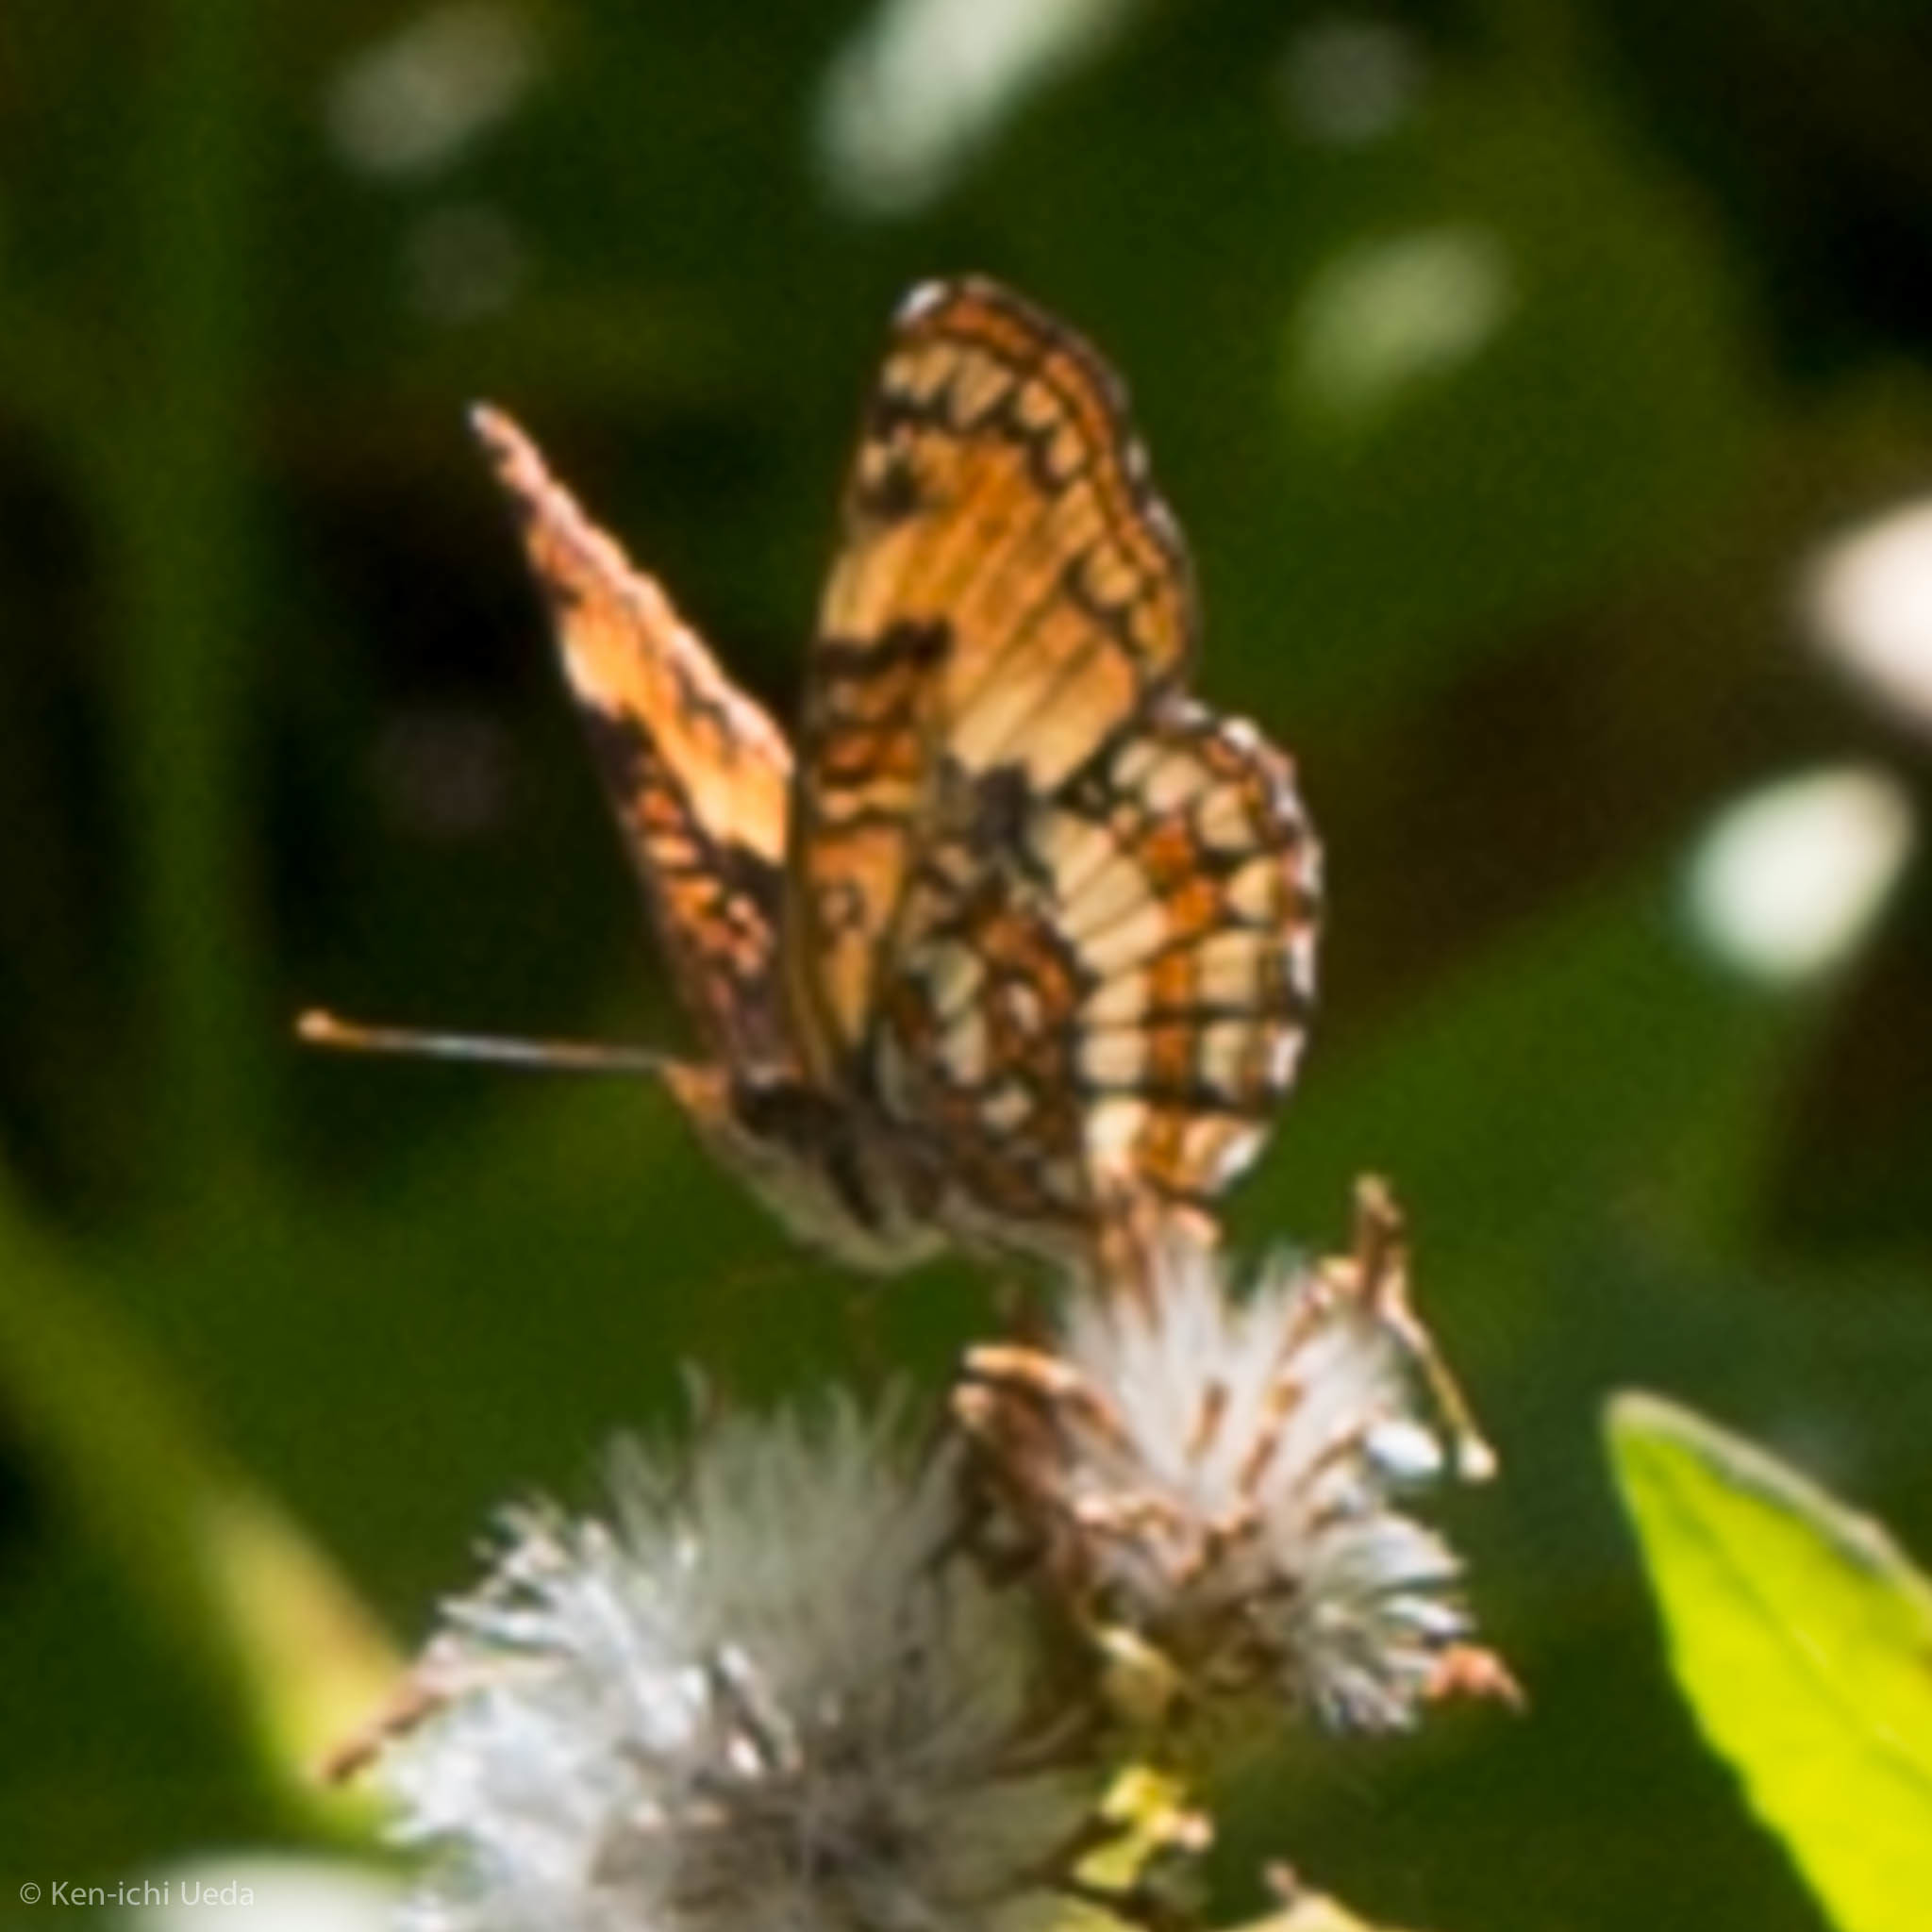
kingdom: Animalia
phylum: Arthropoda
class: Insecta
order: Lepidoptera
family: Nymphalidae
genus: Chlosyne
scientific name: Chlosyne hoffmanni
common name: Hoffmann's checkerspot
